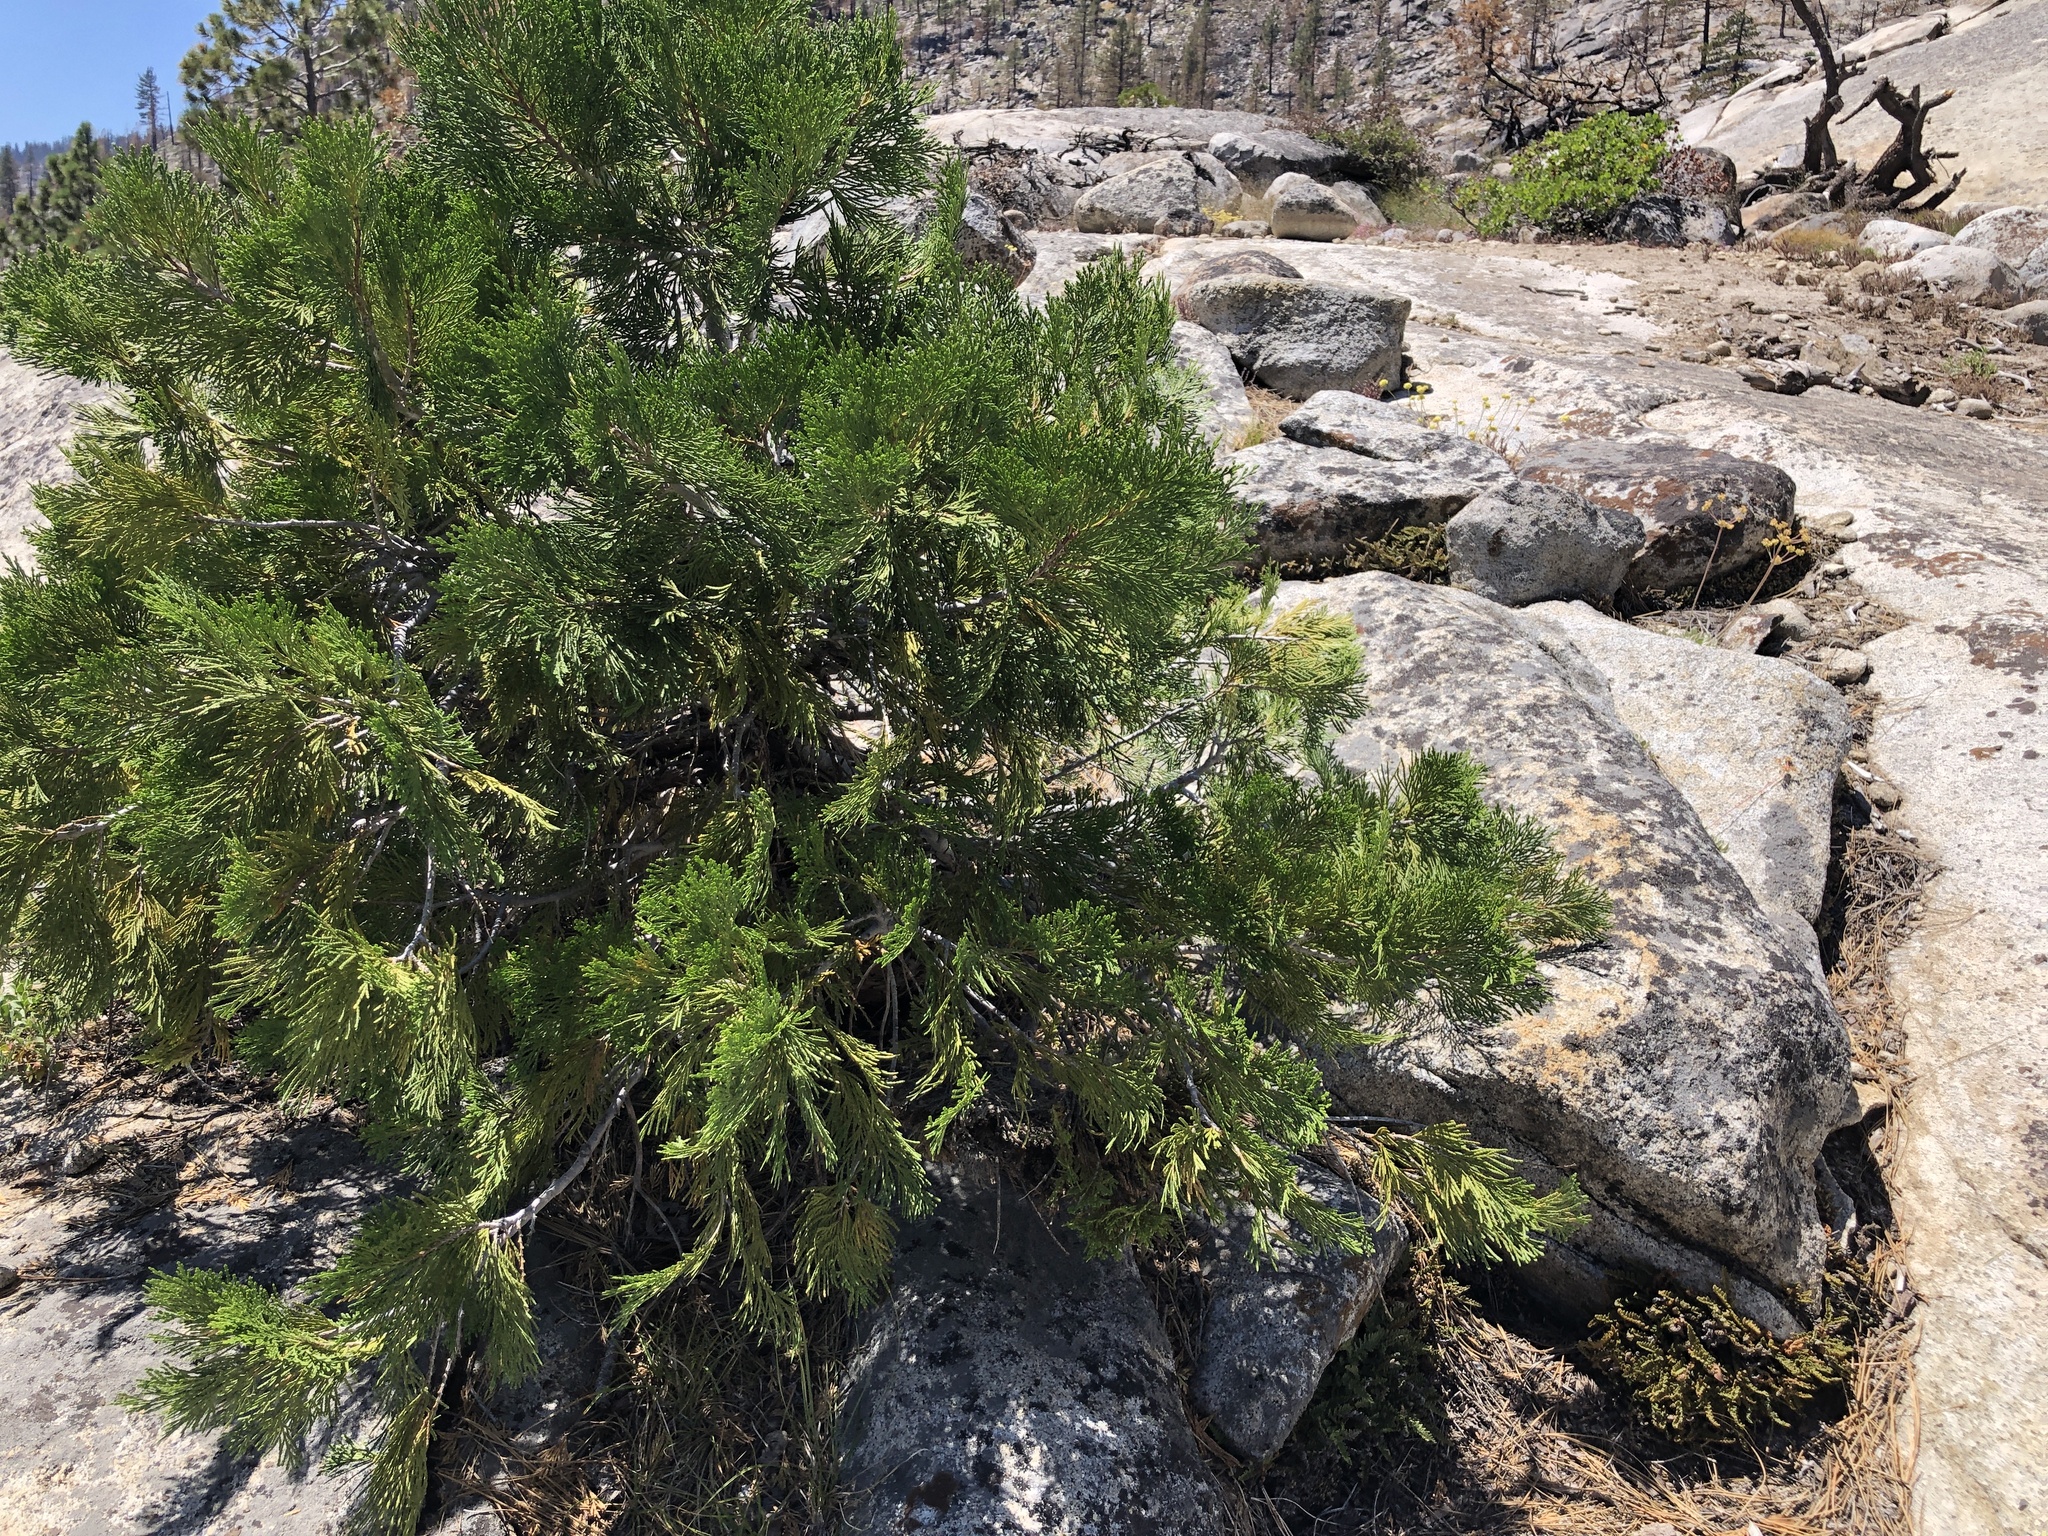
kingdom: Plantae
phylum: Tracheophyta
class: Pinopsida
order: Pinales
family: Cupressaceae
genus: Calocedrus
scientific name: Calocedrus decurrens
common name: Californian incense-cedar
